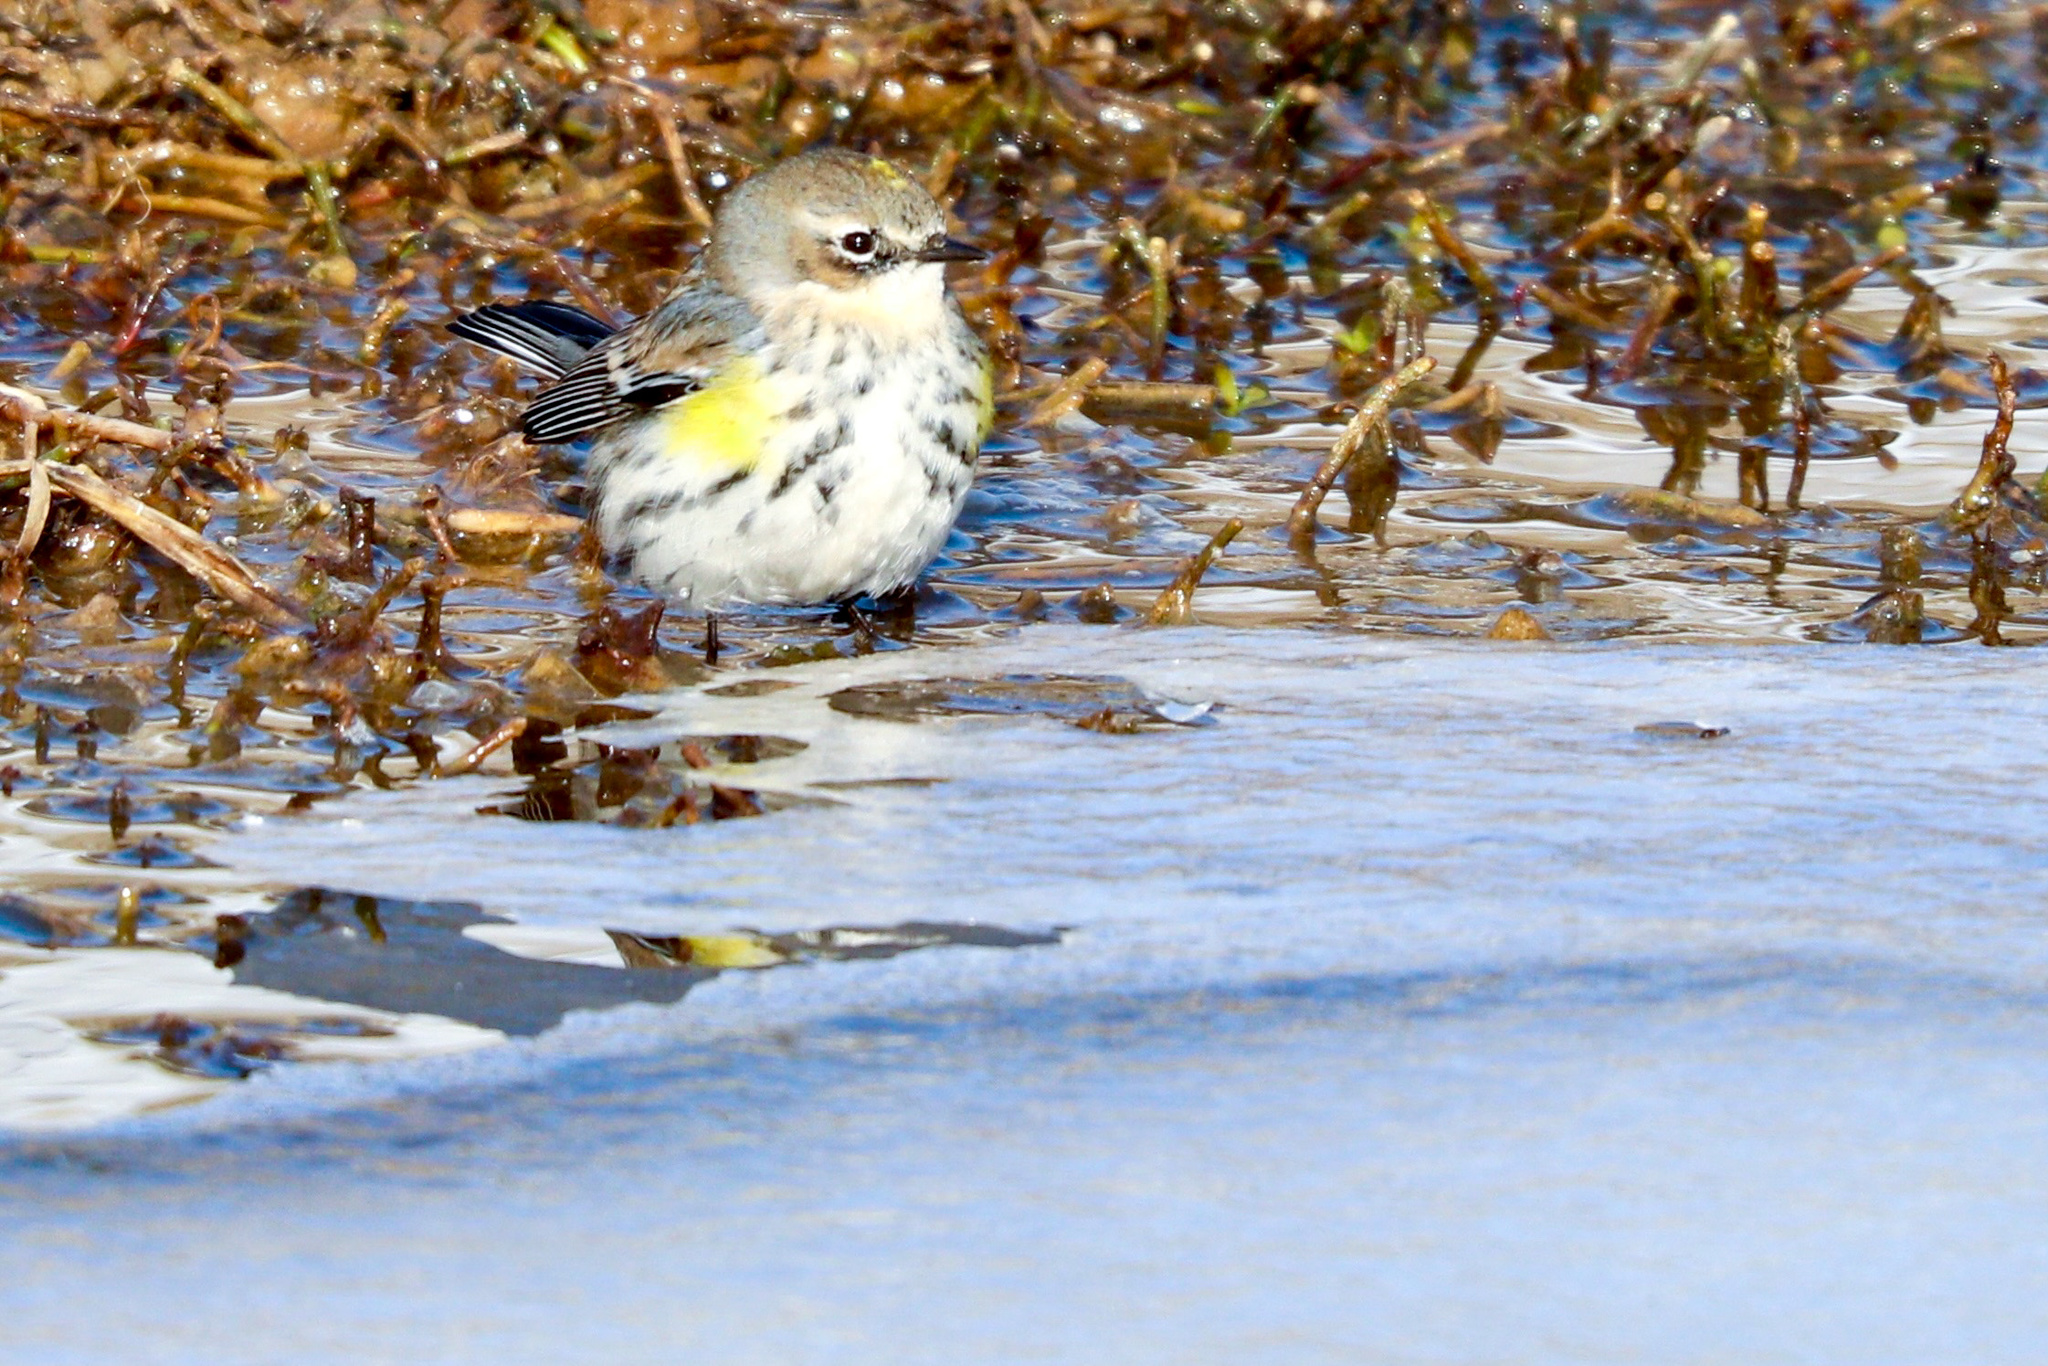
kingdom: Animalia
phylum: Chordata
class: Aves
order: Passeriformes
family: Parulidae
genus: Setophaga
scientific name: Setophaga coronata
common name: Myrtle warbler
